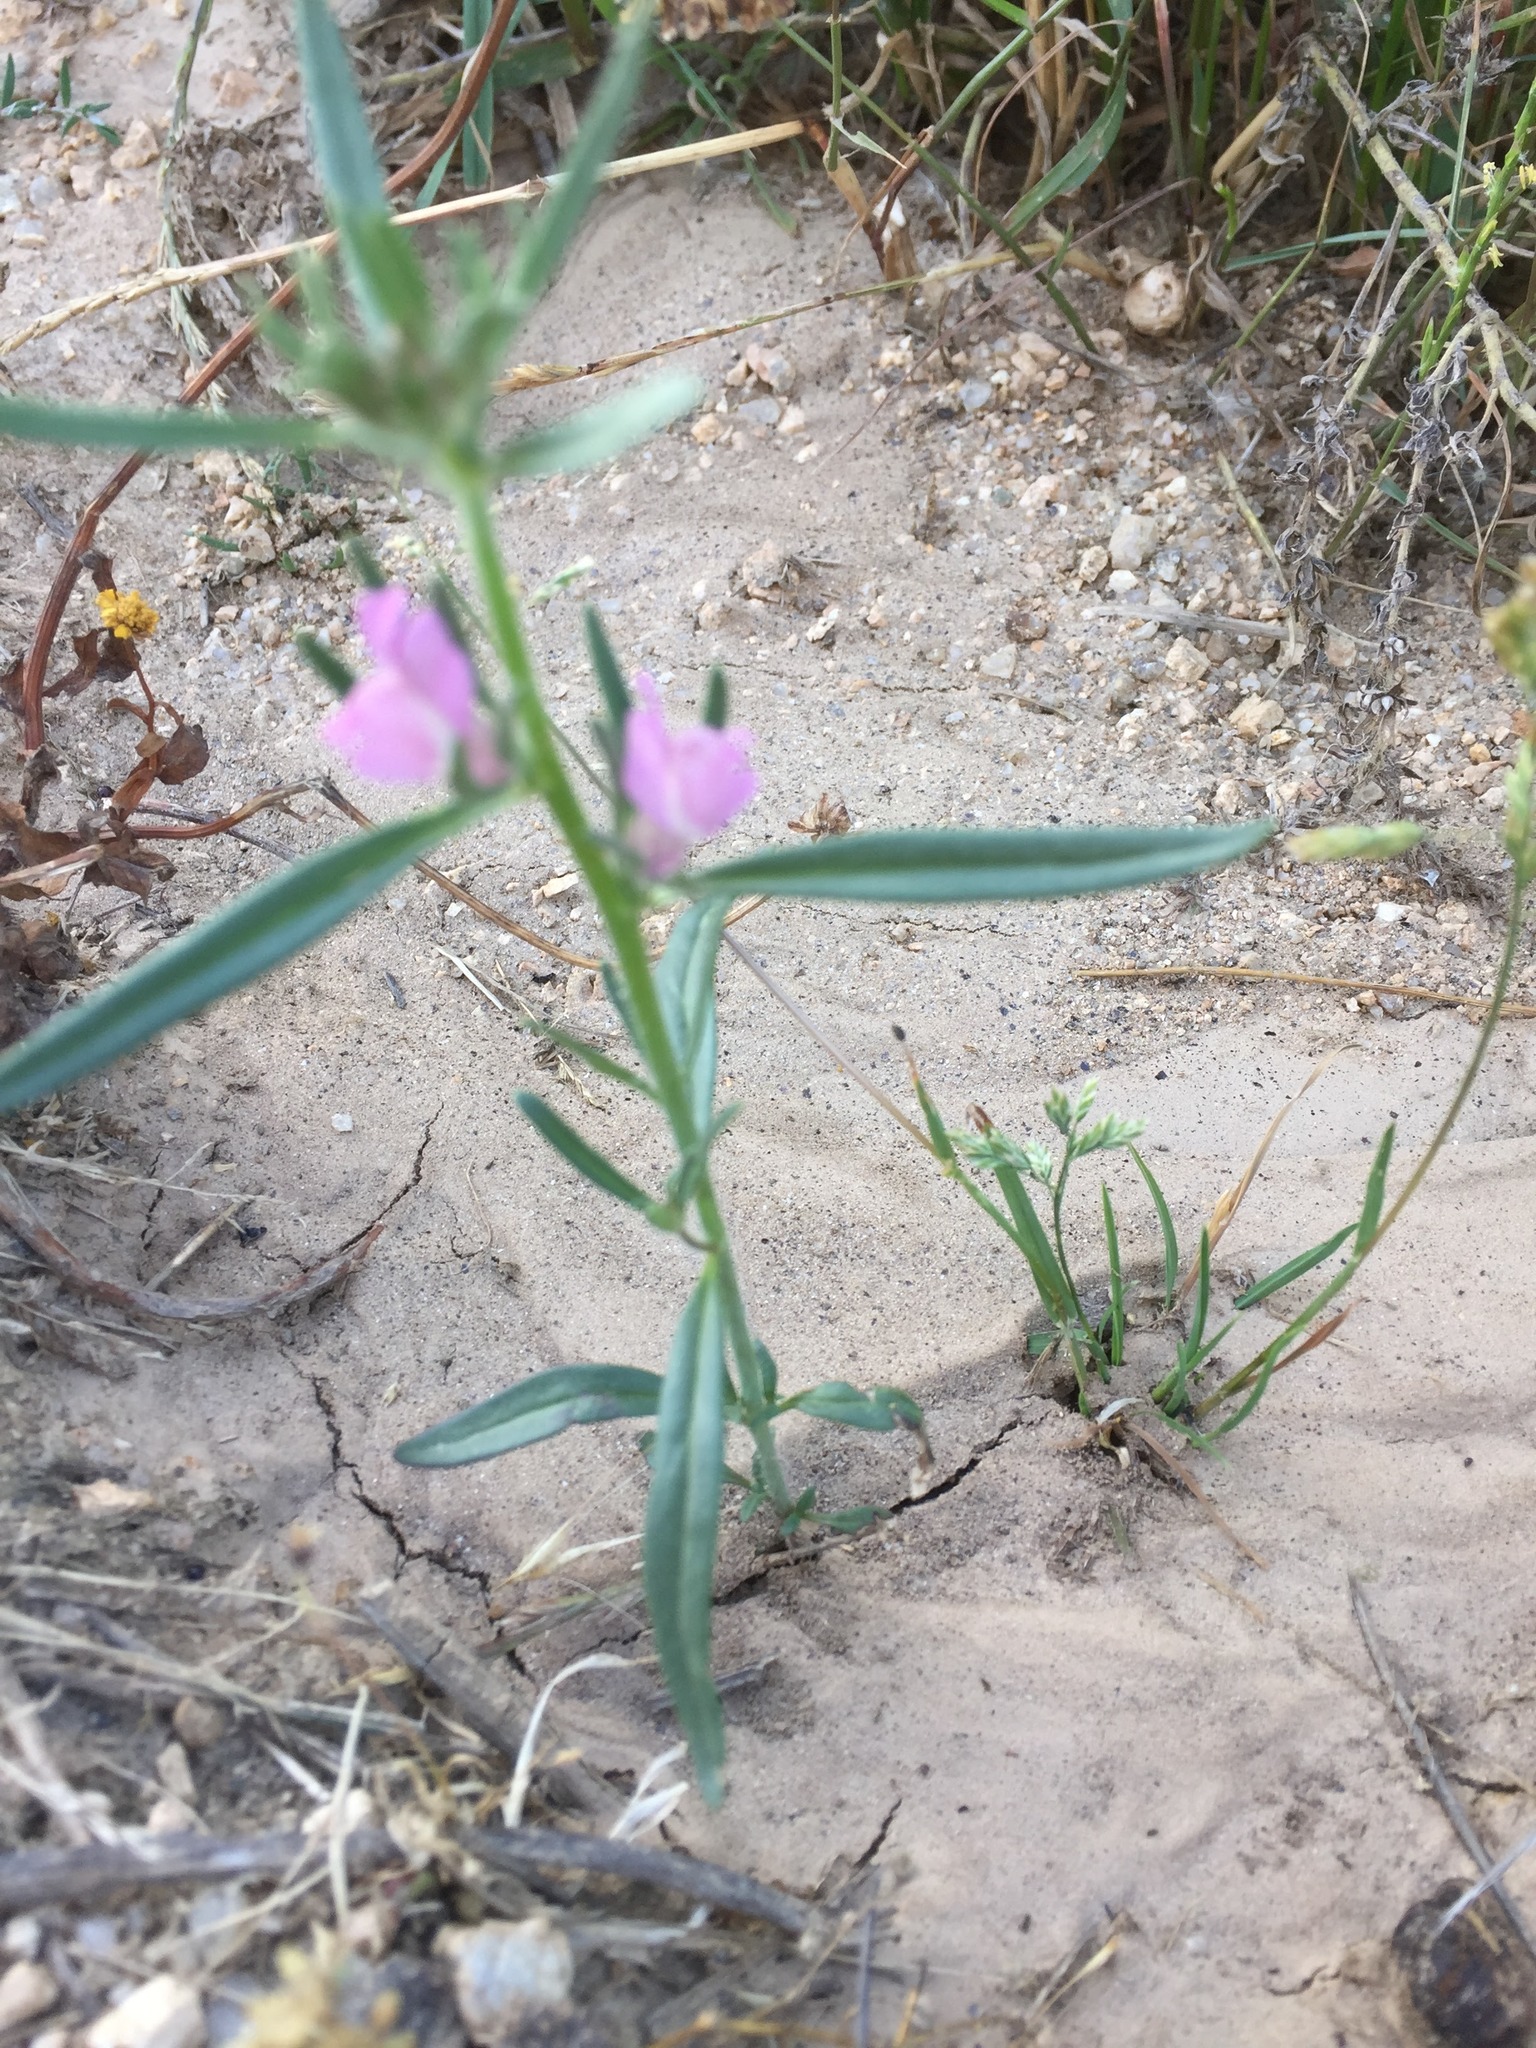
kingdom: Plantae
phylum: Tracheophyta
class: Magnoliopsida
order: Lamiales
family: Plantaginaceae
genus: Misopates
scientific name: Misopates orontium
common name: Weasel's-snout
